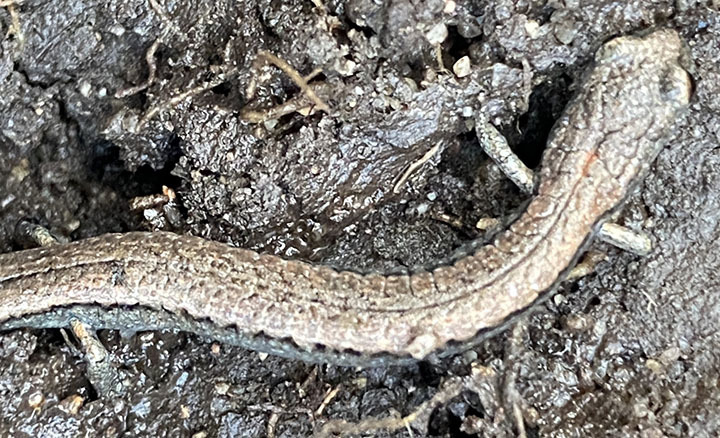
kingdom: Animalia
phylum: Chordata
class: Amphibia
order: Caudata
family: Plethodontidae
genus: Batrachoseps
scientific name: Batrachoseps gavilanensis
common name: Gabilan mountains slender salamander
